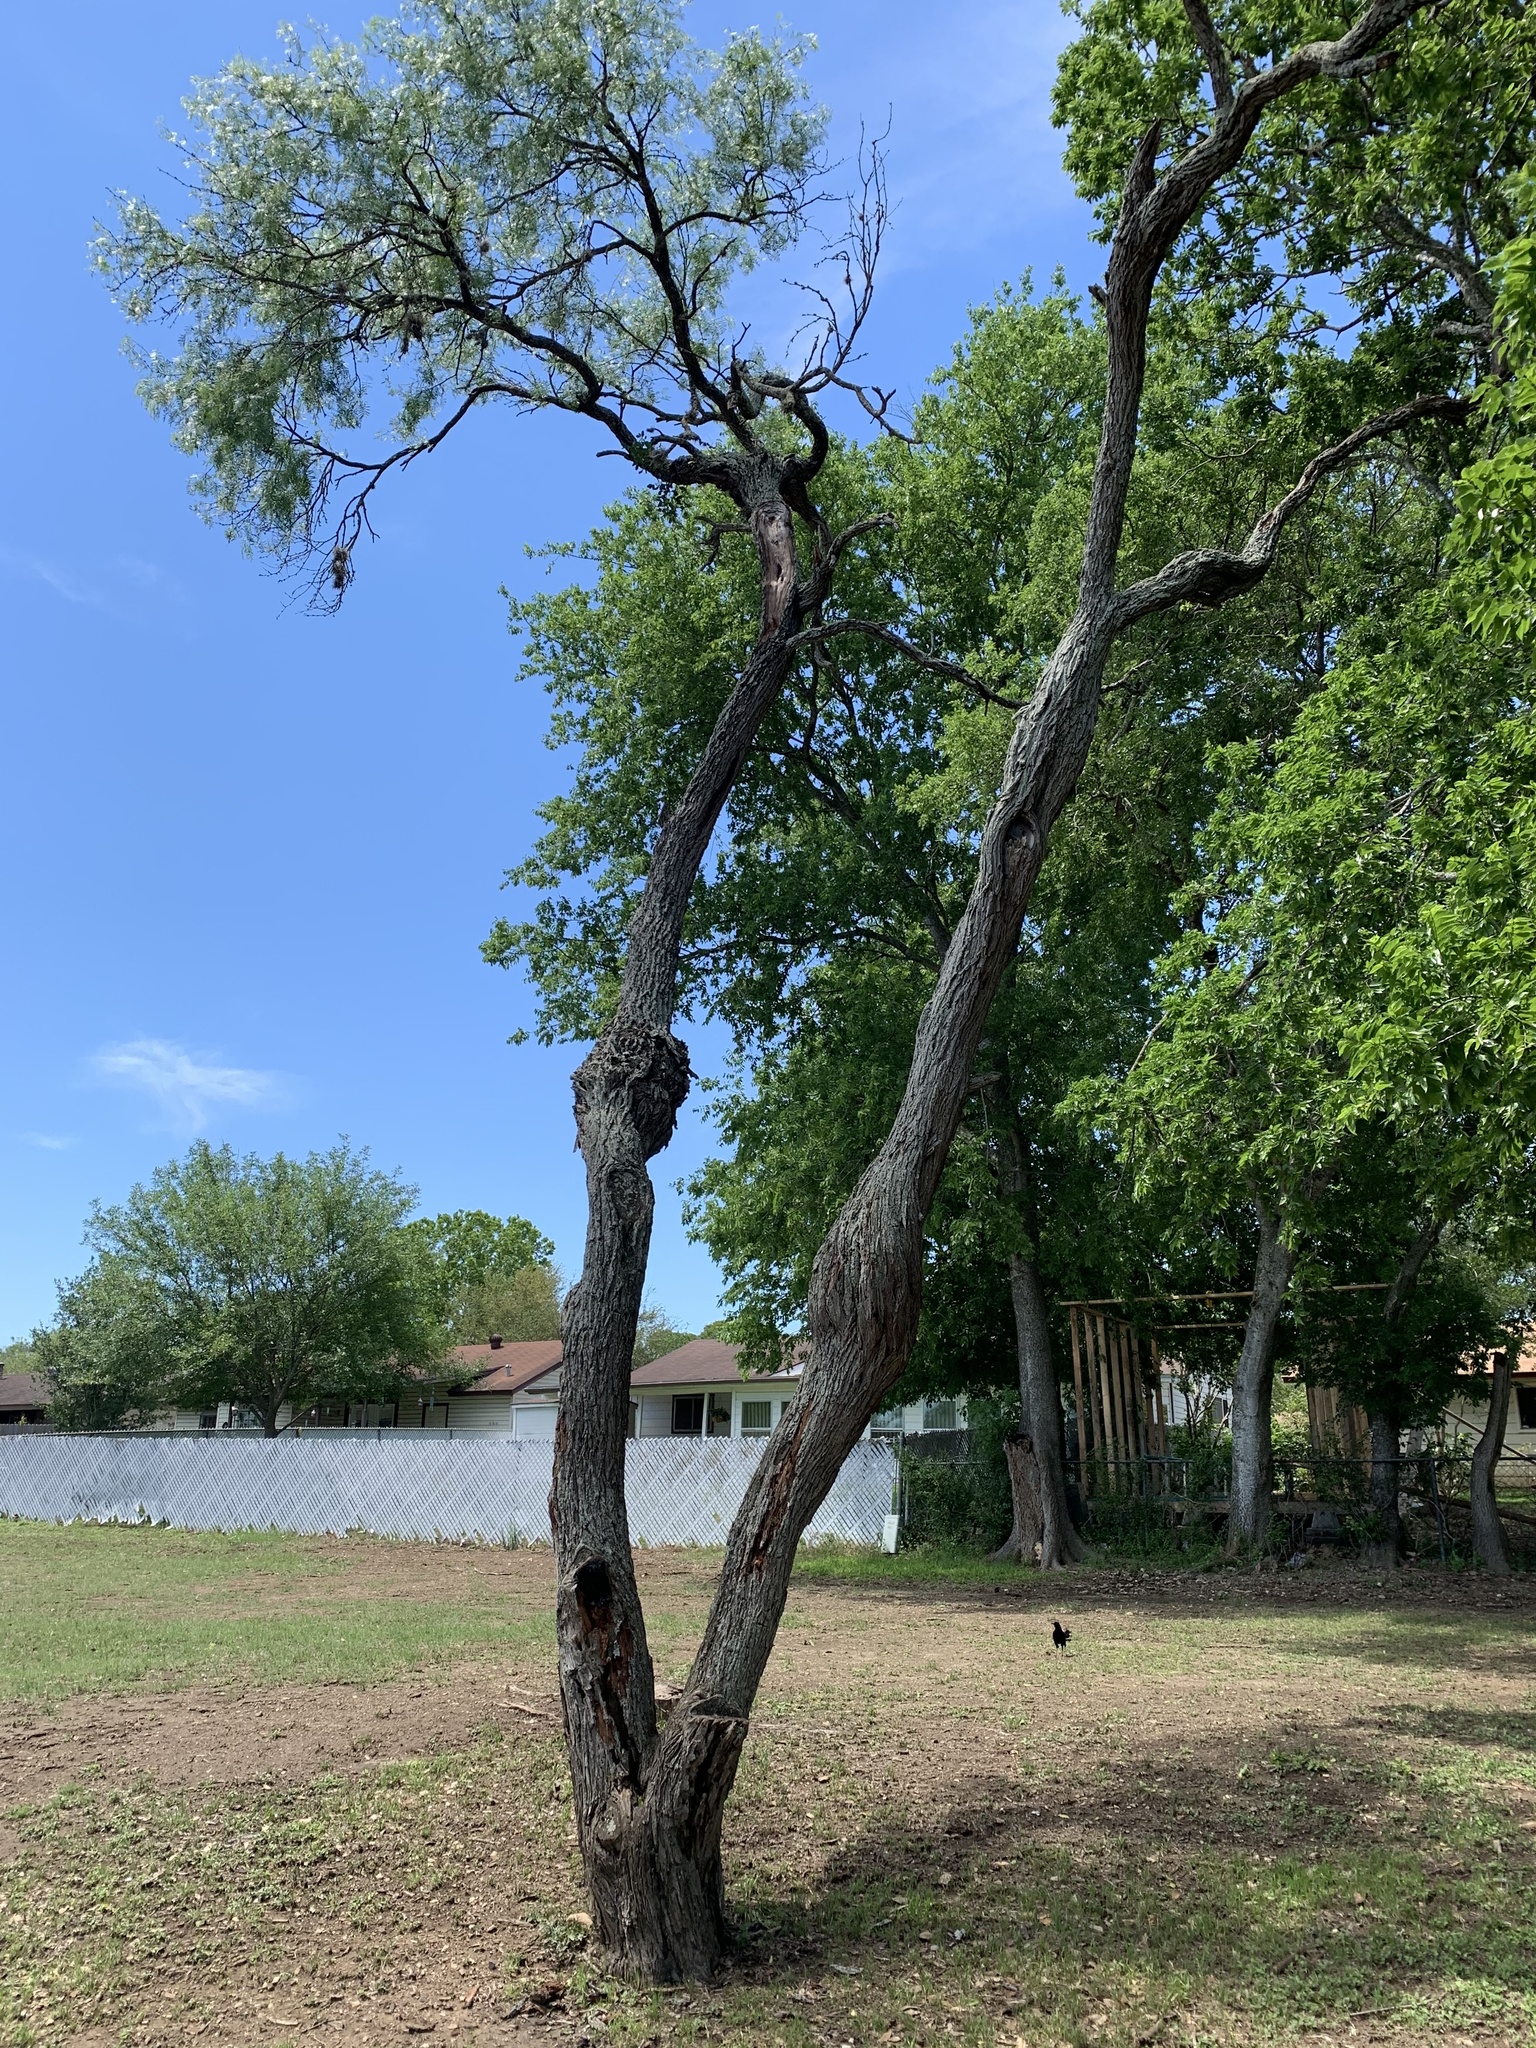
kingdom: Plantae
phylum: Tracheophyta
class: Magnoliopsida
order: Fabales
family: Fabaceae
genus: Prosopis
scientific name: Prosopis glandulosa
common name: Honey mesquite
